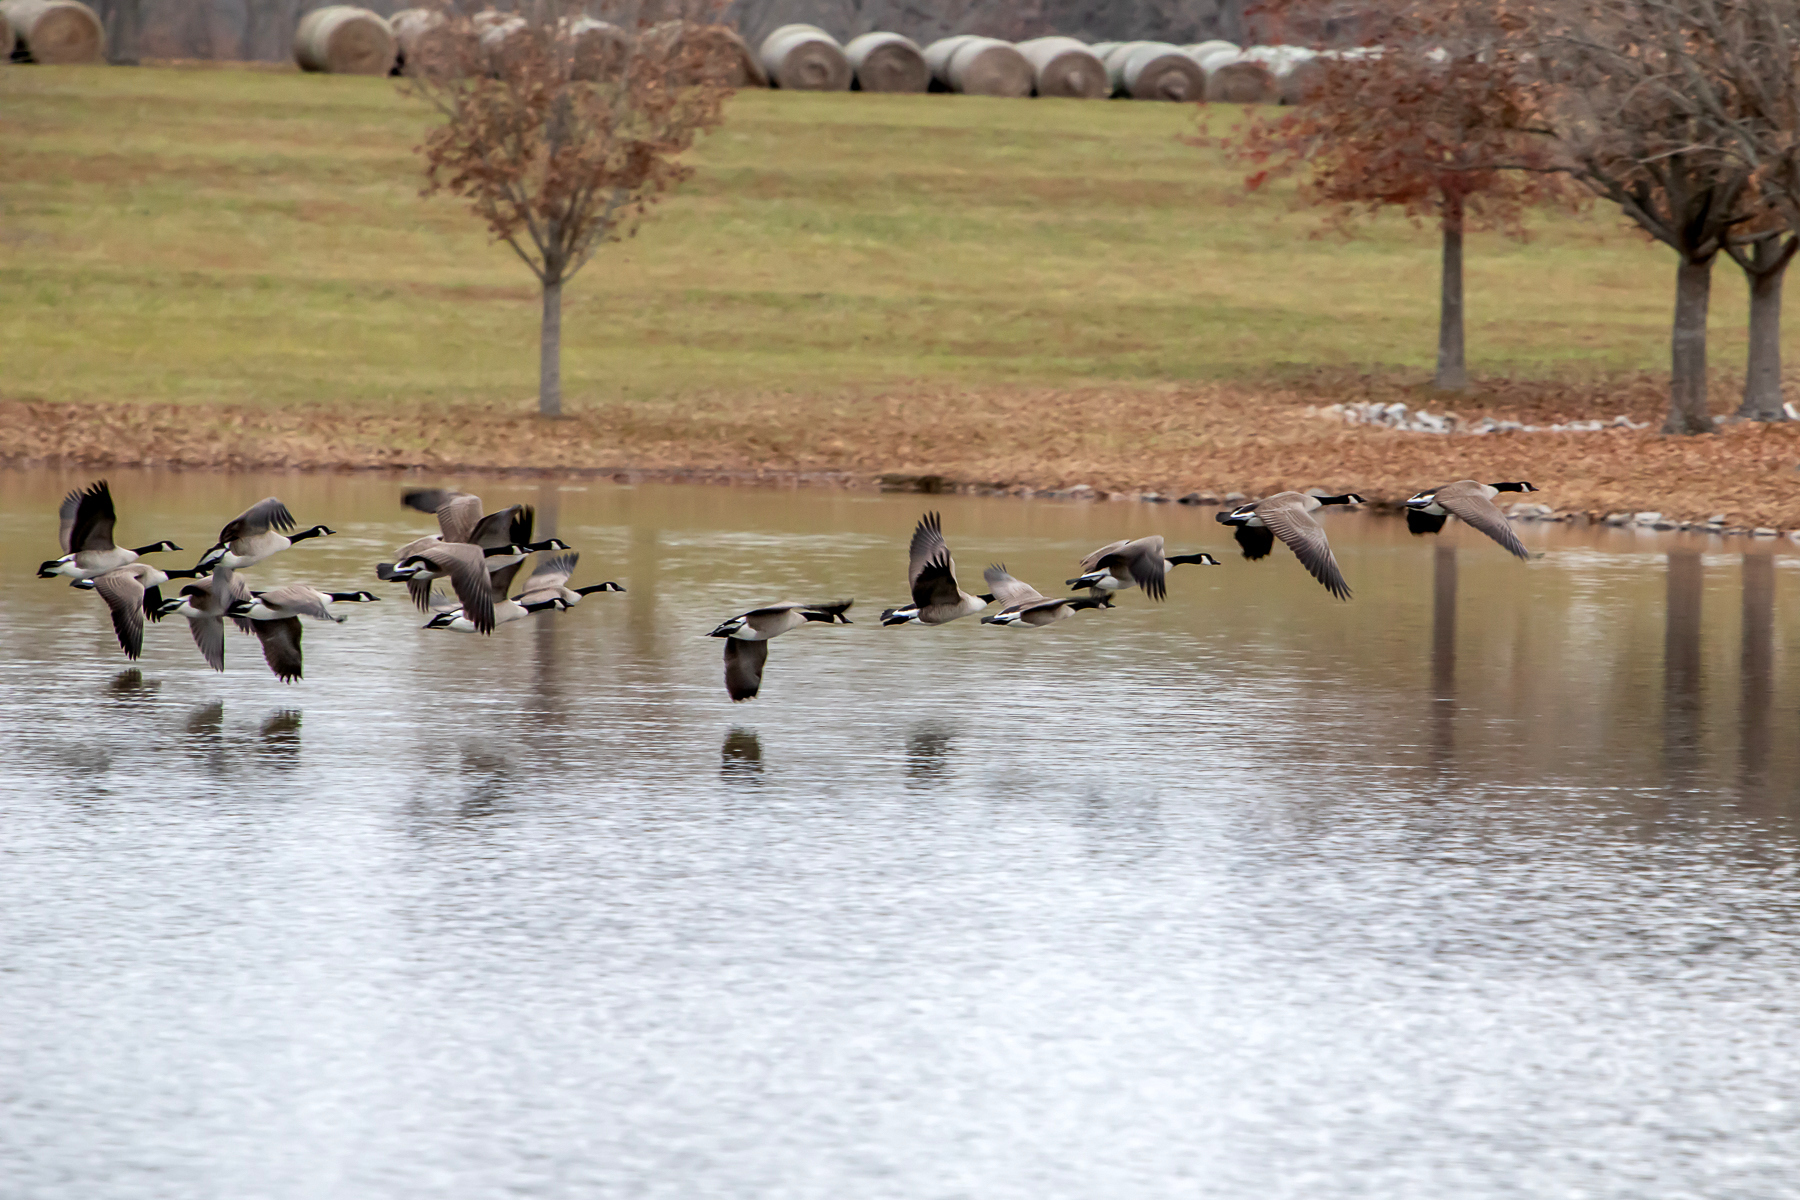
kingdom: Animalia
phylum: Chordata
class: Aves
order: Anseriformes
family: Anatidae
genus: Branta
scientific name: Branta canadensis
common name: Canada goose
